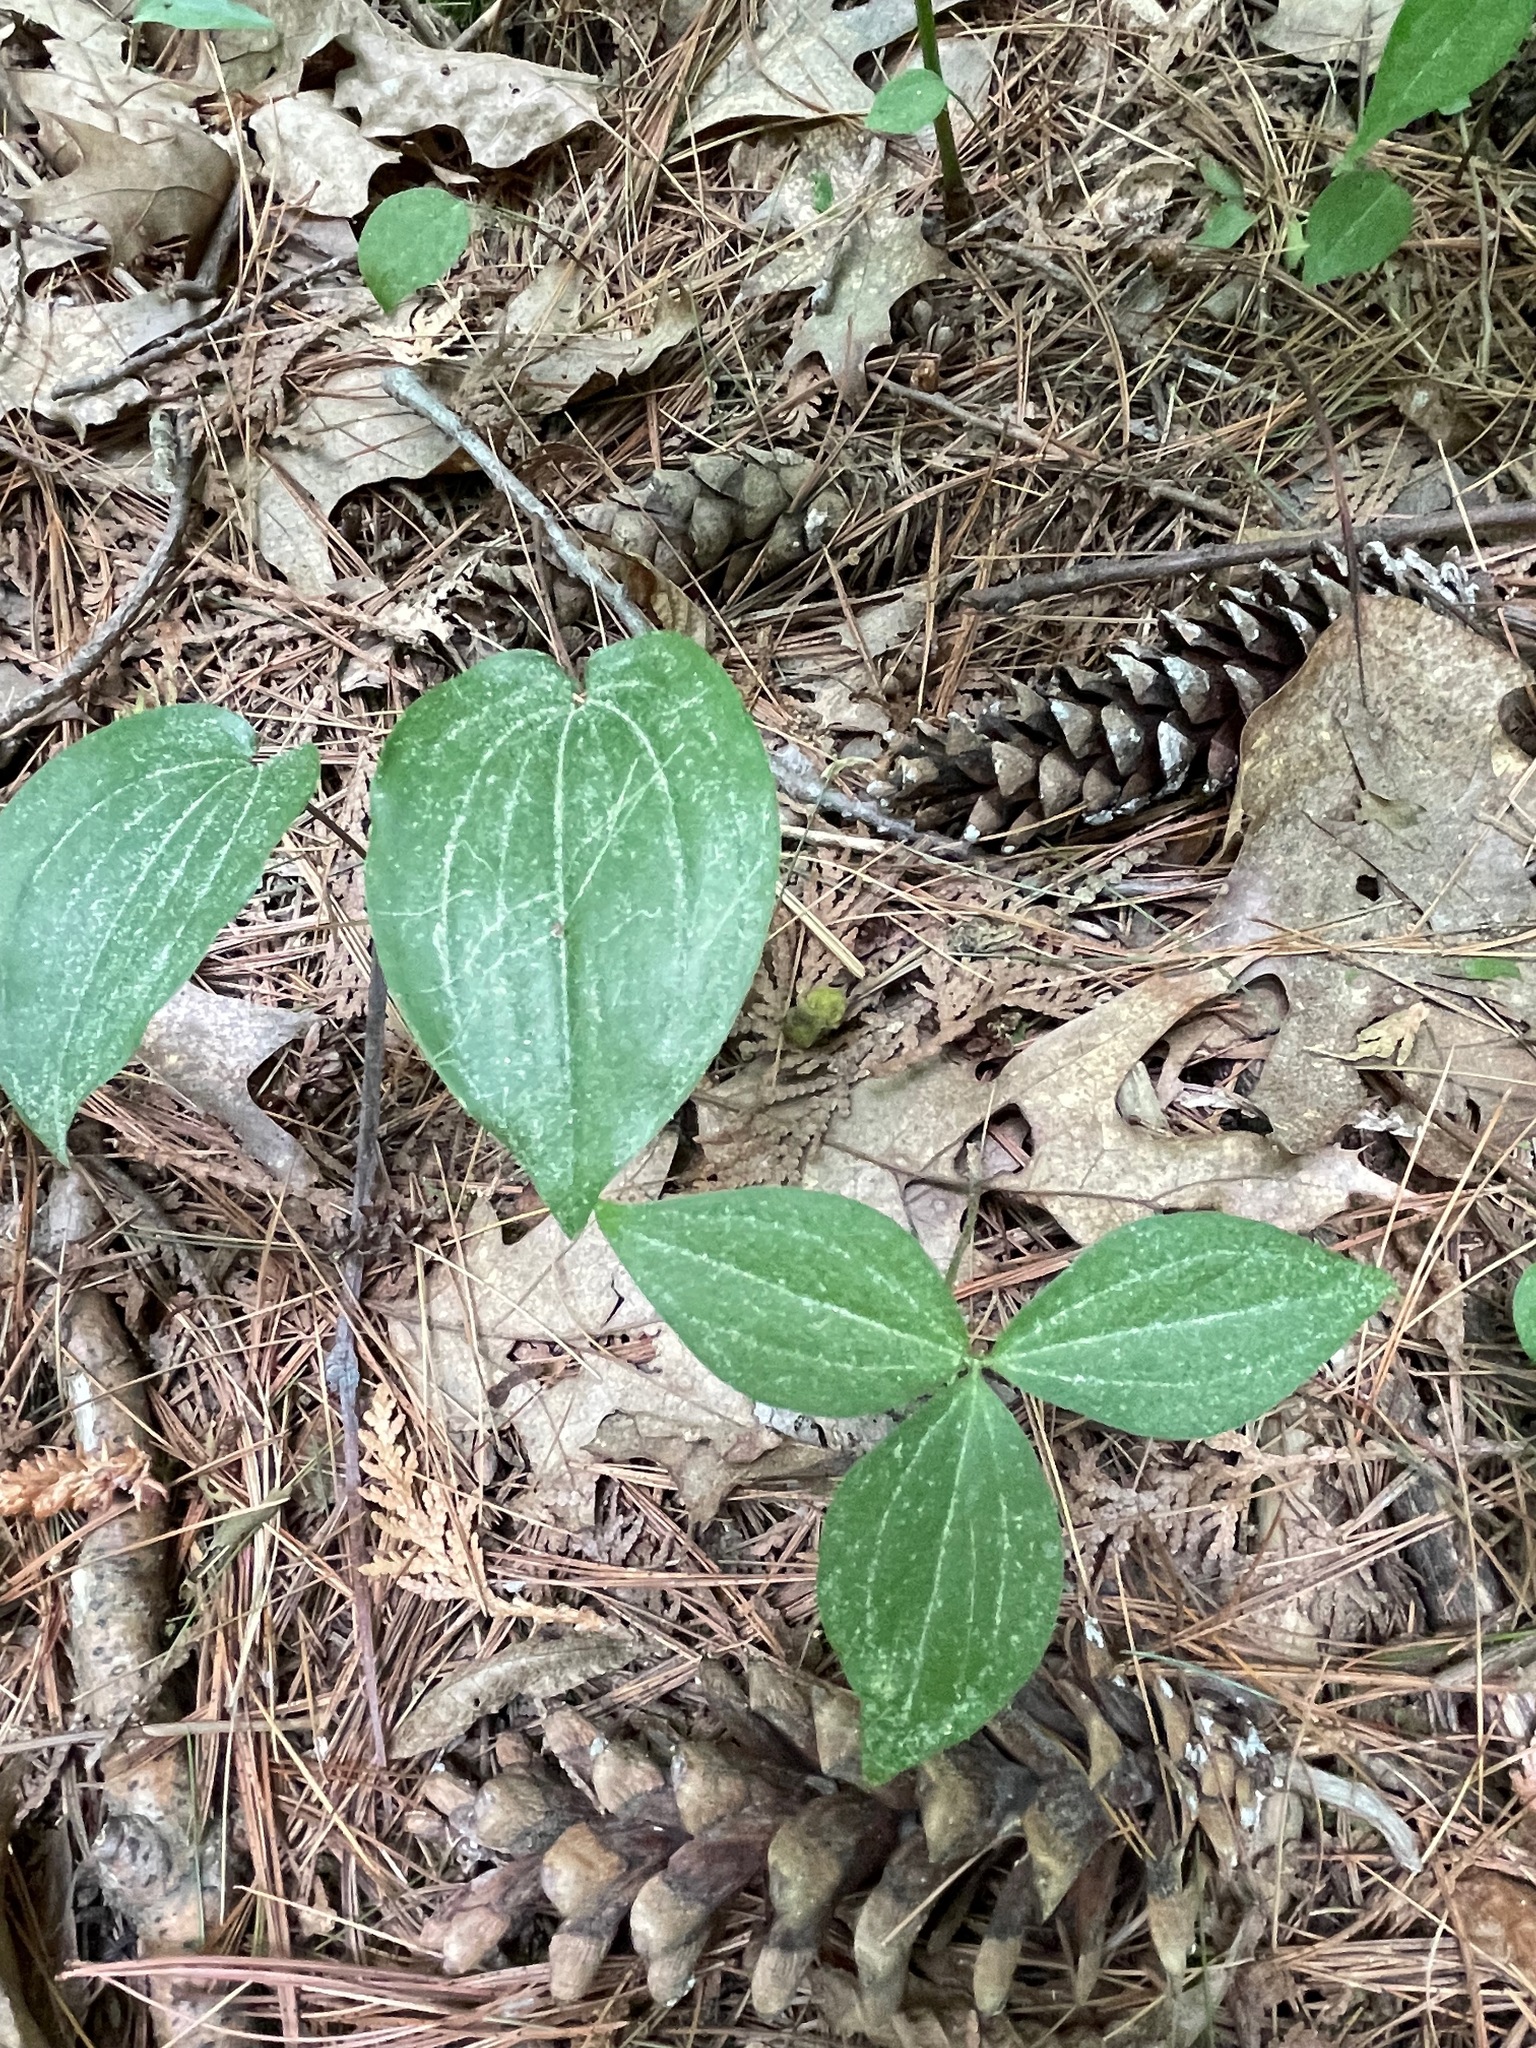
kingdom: Plantae
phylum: Tracheophyta
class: Liliopsida
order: Liliales
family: Melanthiaceae
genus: Trillium
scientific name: Trillium grandiflorum
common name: Great white trillium
